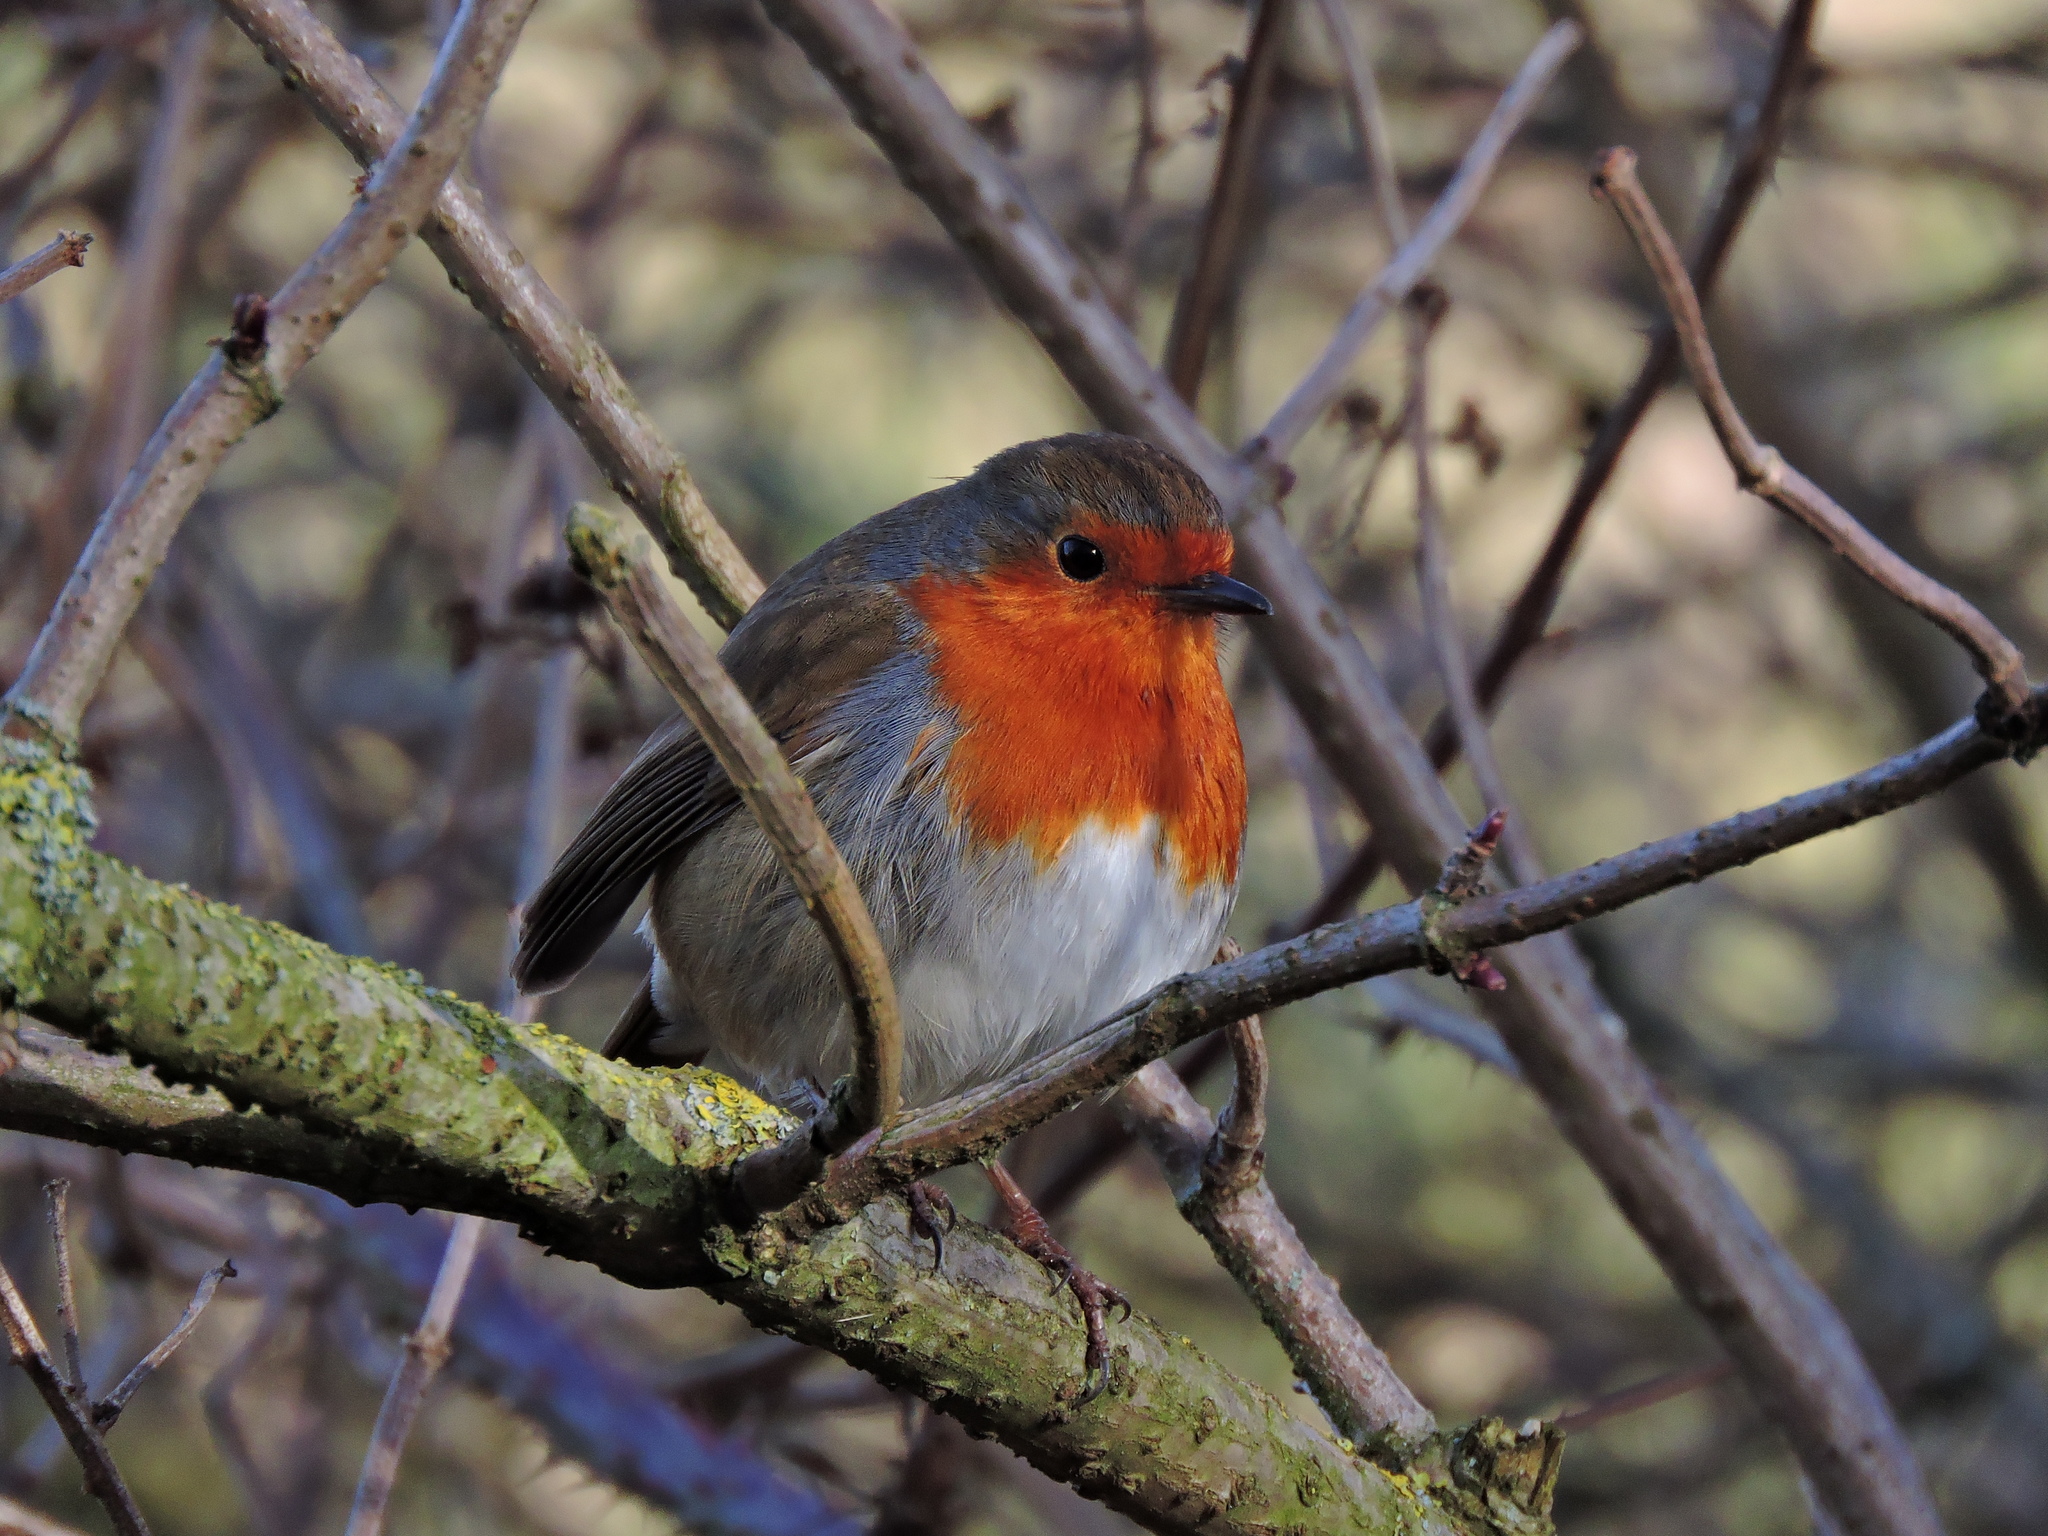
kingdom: Animalia
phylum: Chordata
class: Aves
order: Passeriformes
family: Muscicapidae
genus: Erithacus
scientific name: Erithacus rubecula
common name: European robin
